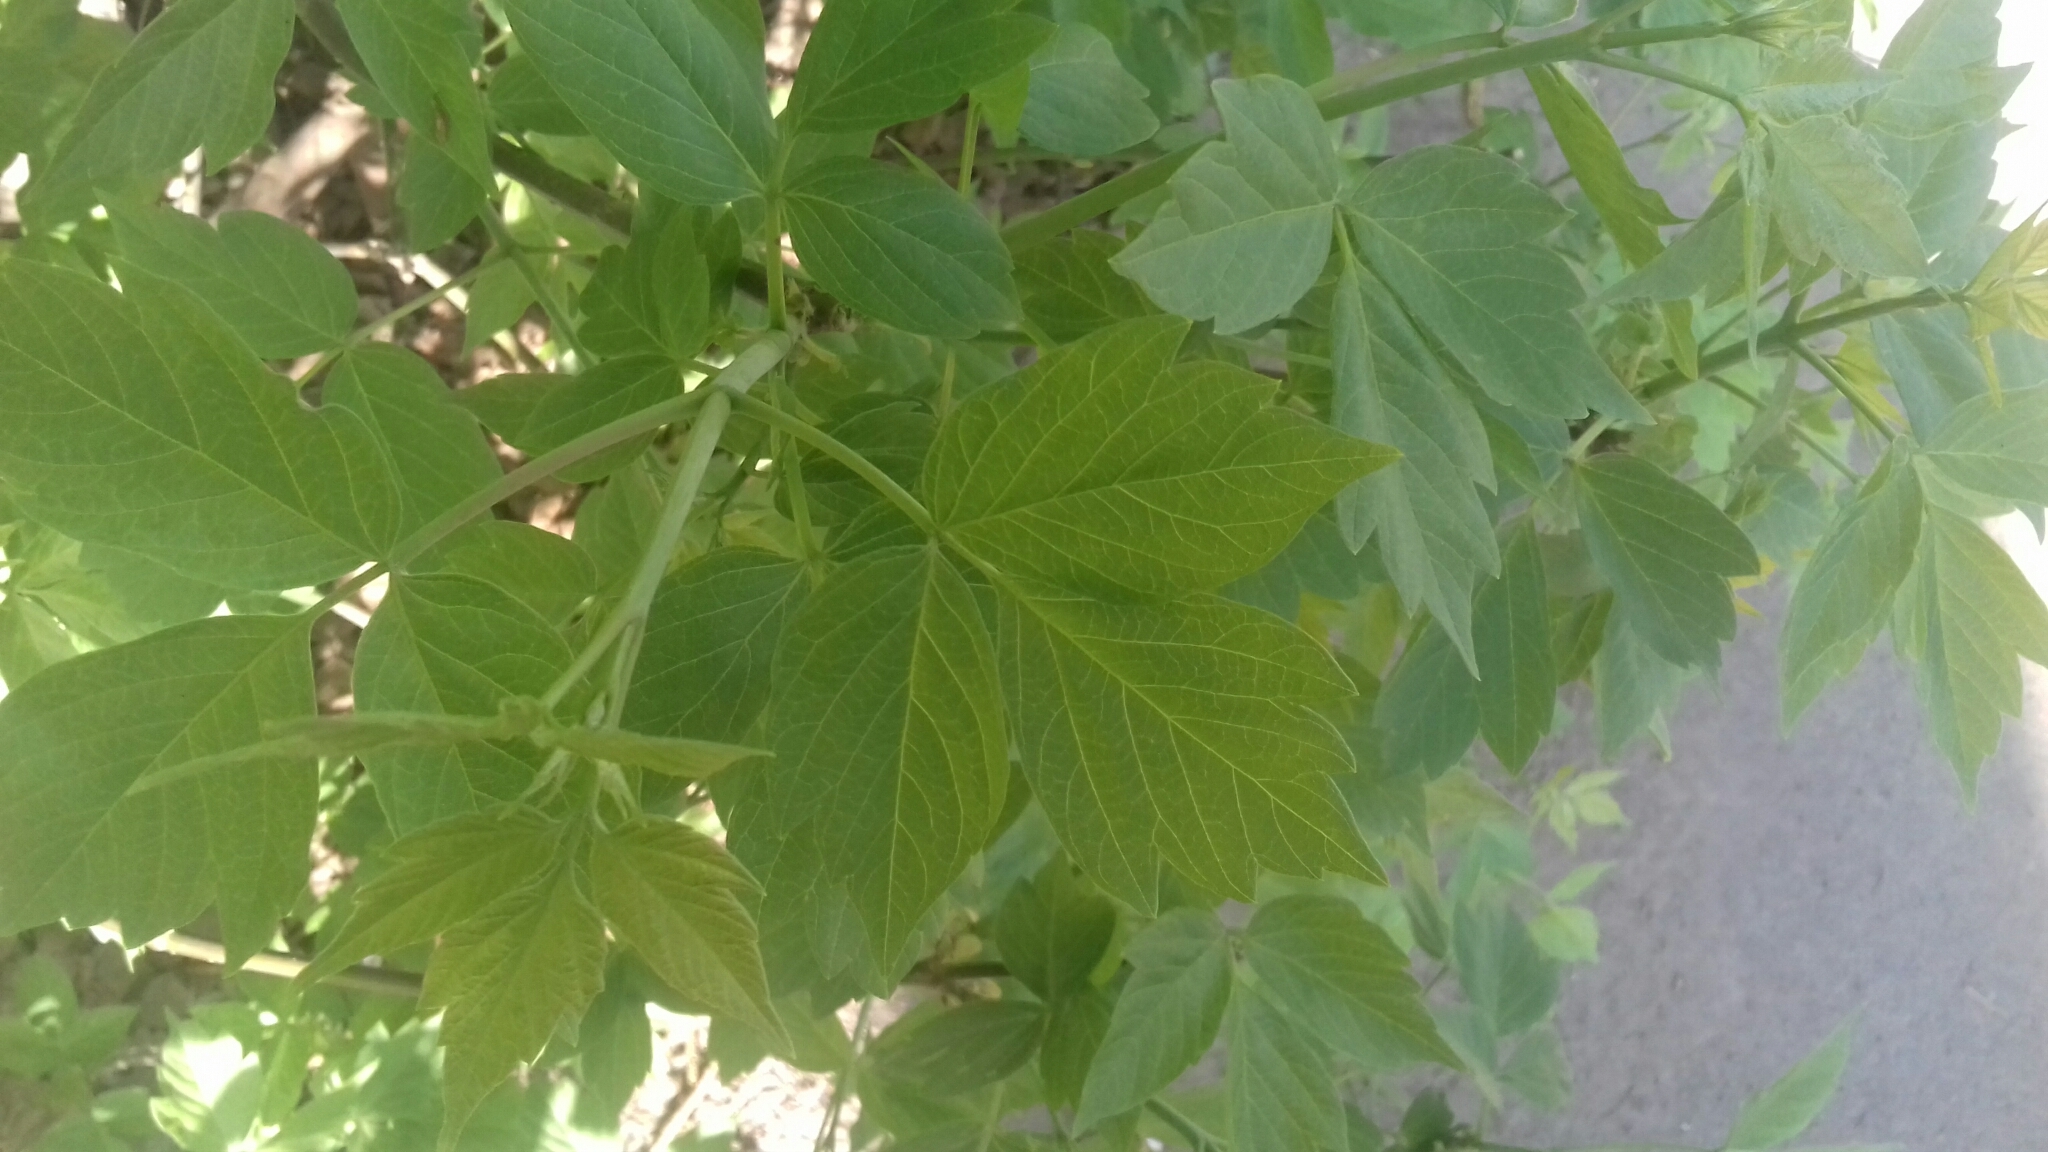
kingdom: Plantae
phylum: Tracheophyta
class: Magnoliopsida
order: Sapindales
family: Sapindaceae
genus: Acer
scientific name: Acer negundo
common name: Ashleaf maple
